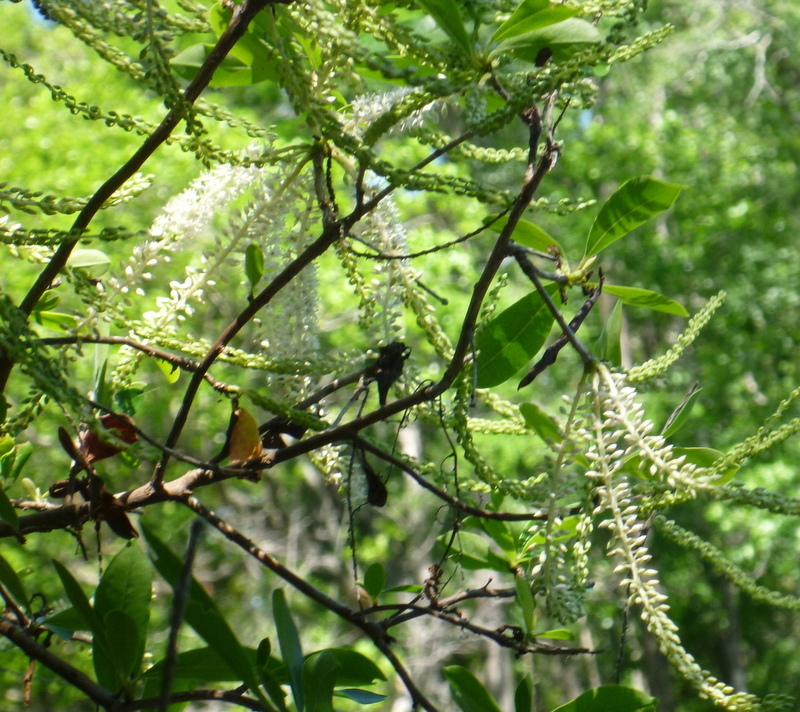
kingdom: Plantae
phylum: Tracheophyta
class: Magnoliopsida
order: Ericales
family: Cyrillaceae
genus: Cyrilla
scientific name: Cyrilla racemiflora
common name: Black titi
